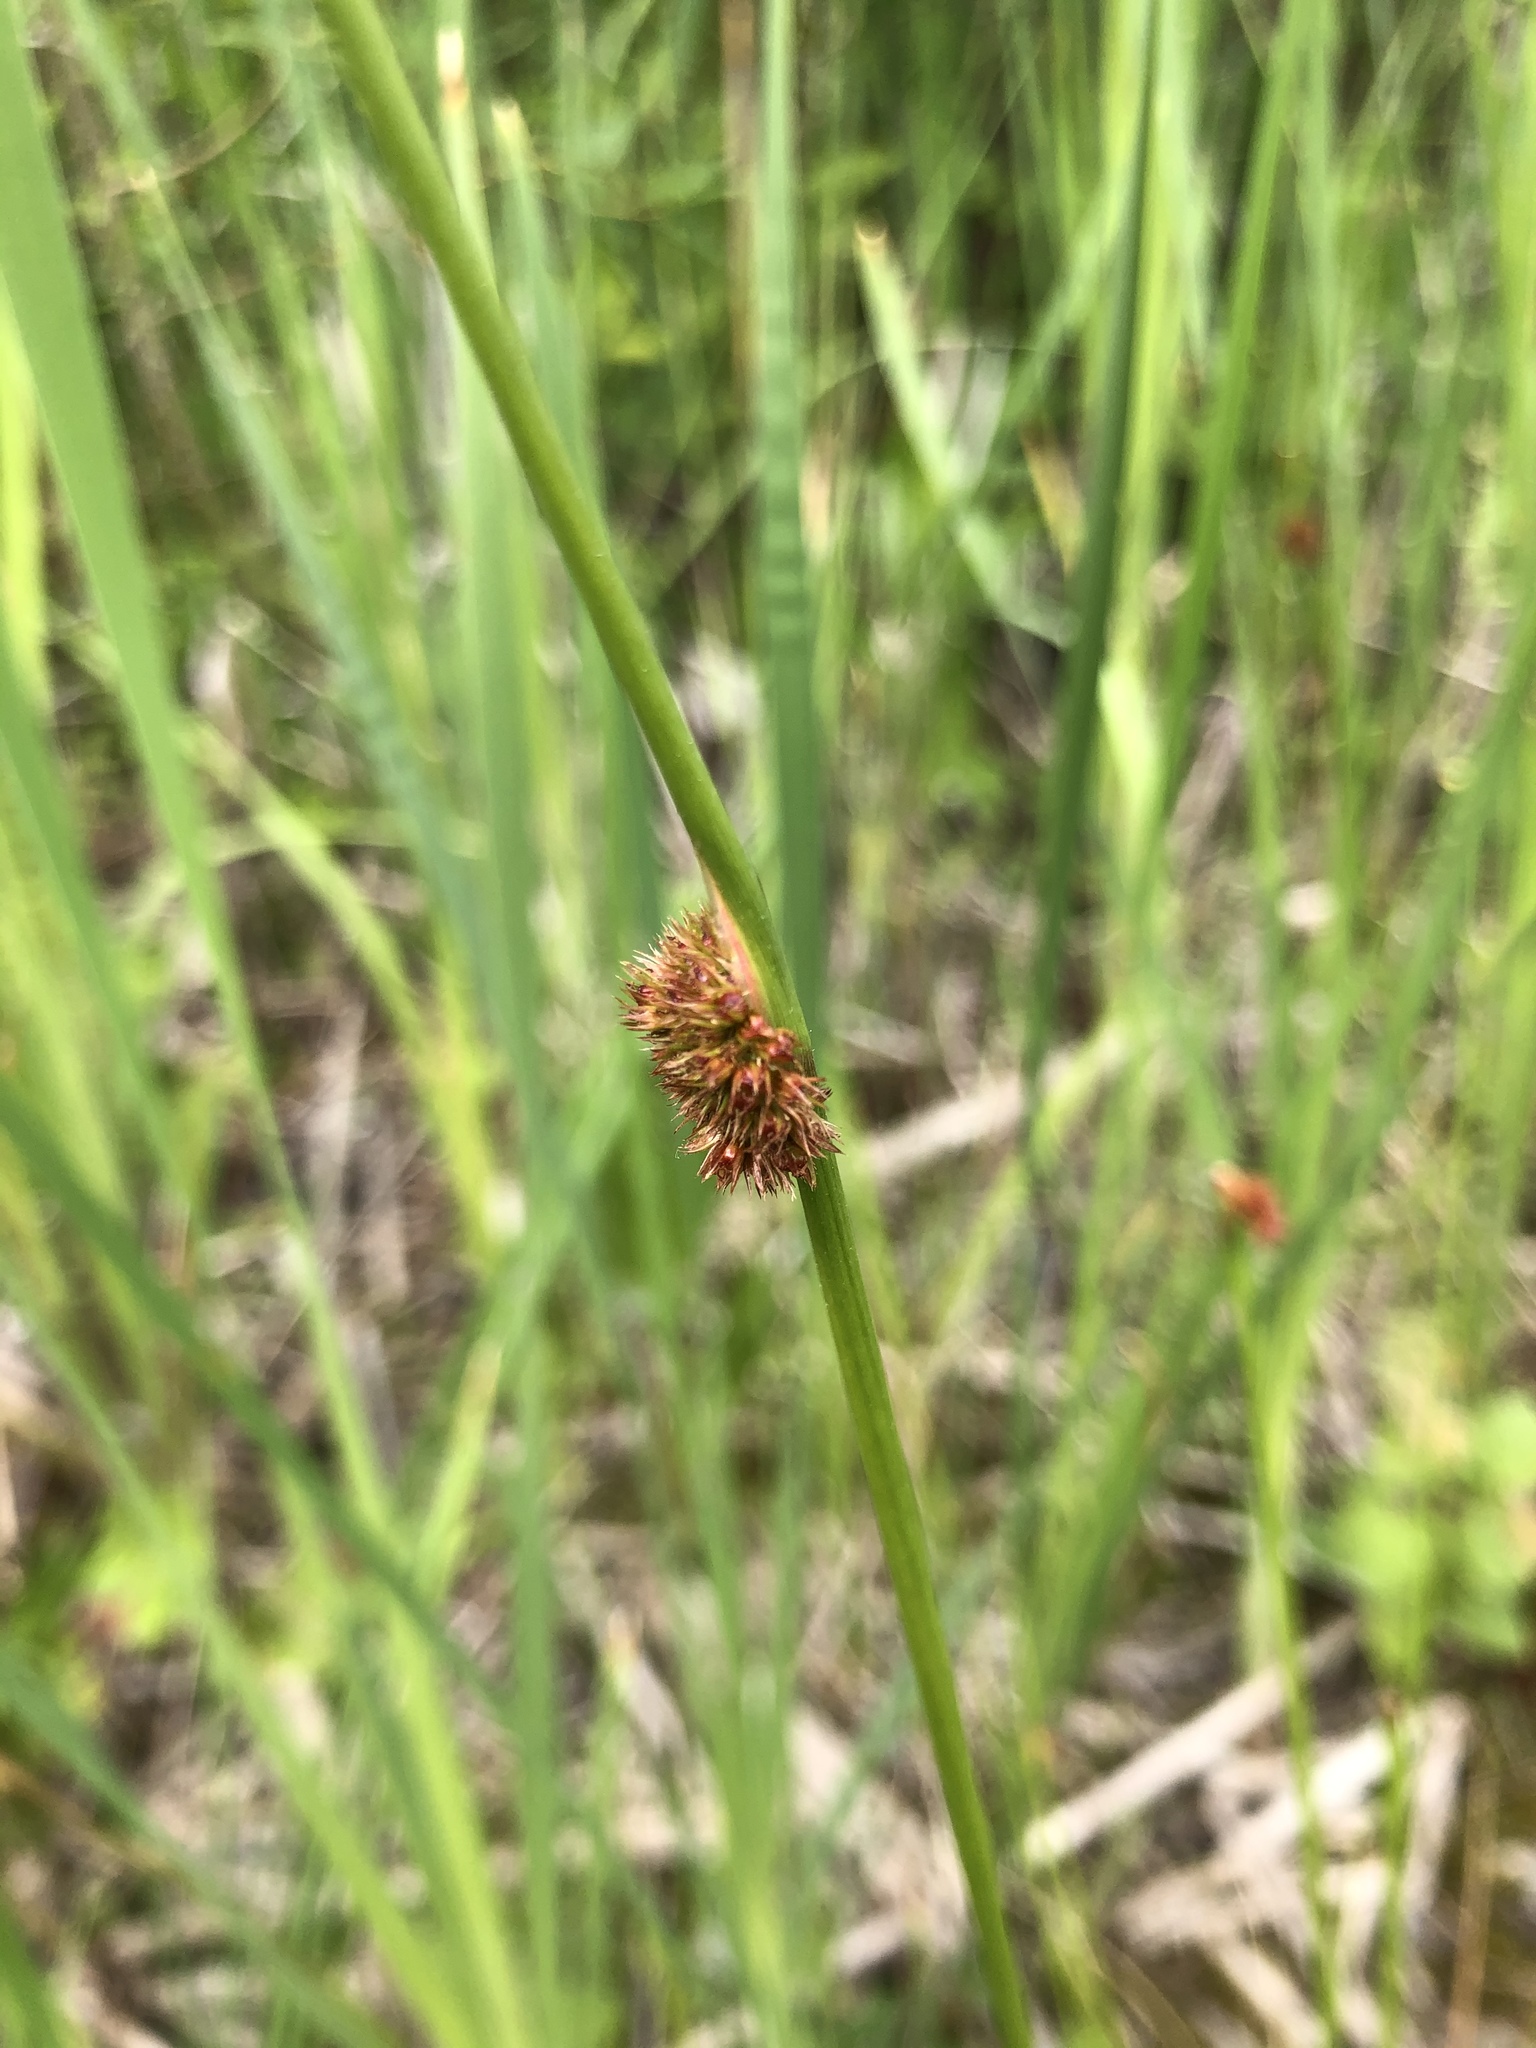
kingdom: Plantae
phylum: Tracheophyta
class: Liliopsida
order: Poales
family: Juncaceae
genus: Juncus
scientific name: Juncus conglomeratus
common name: Compact rush
